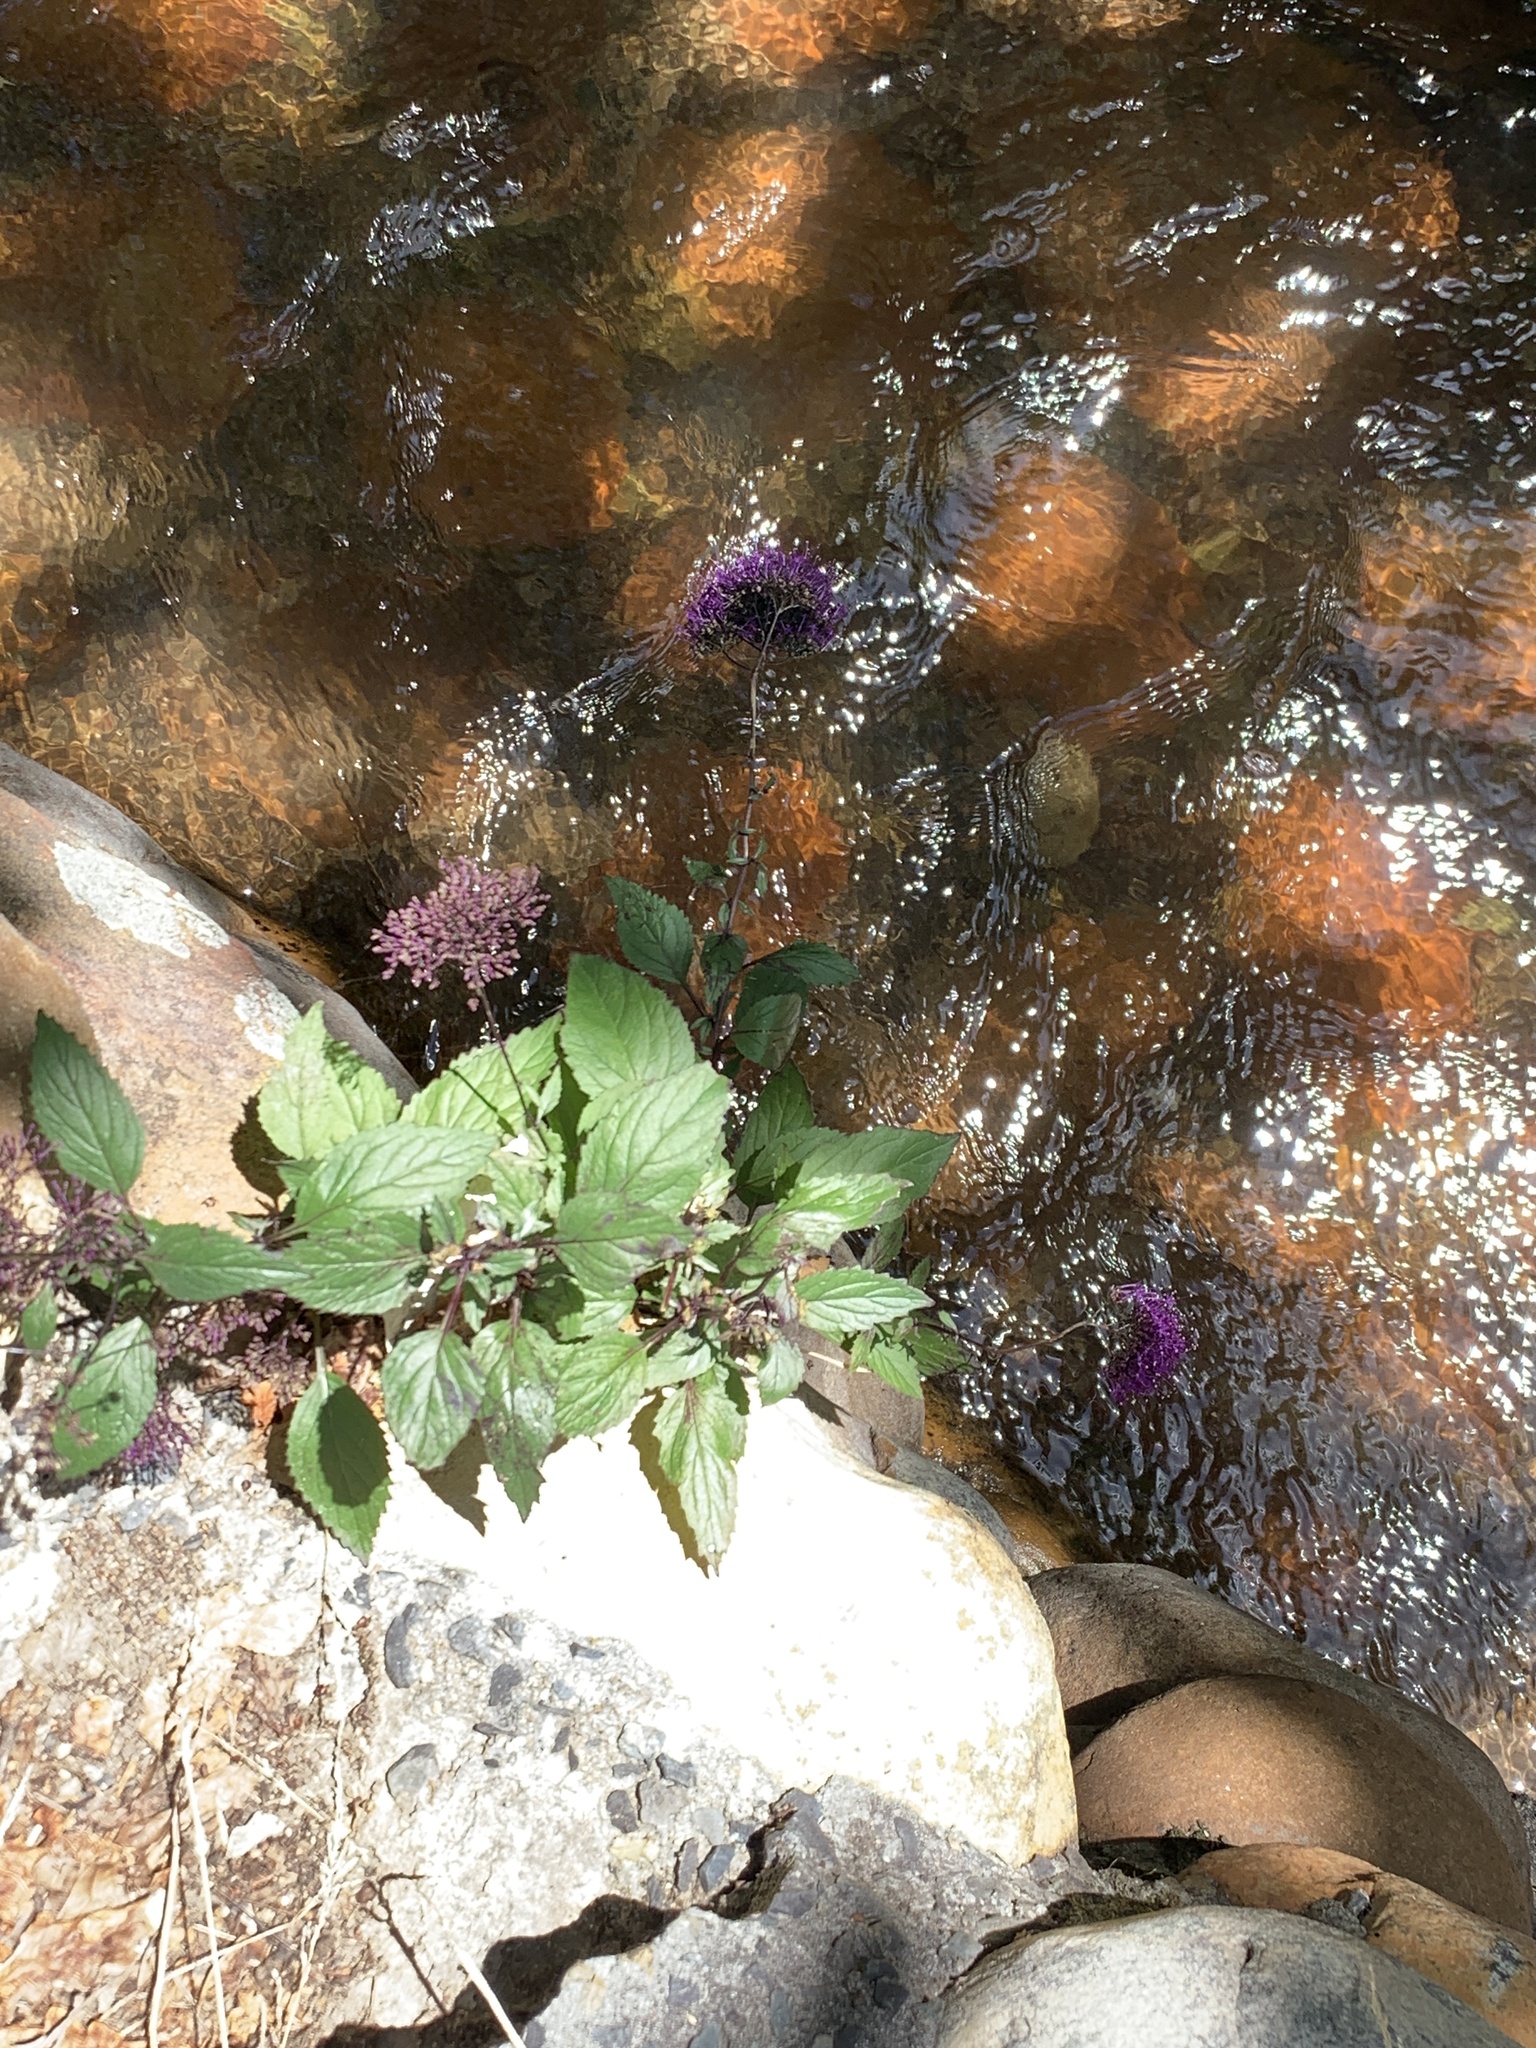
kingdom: Plantae
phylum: Tracheophyta
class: Magnoliopsida
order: Asterales
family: Campanulaceae
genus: Trachelium
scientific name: Trachelium caeruleum
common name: Throatwort
